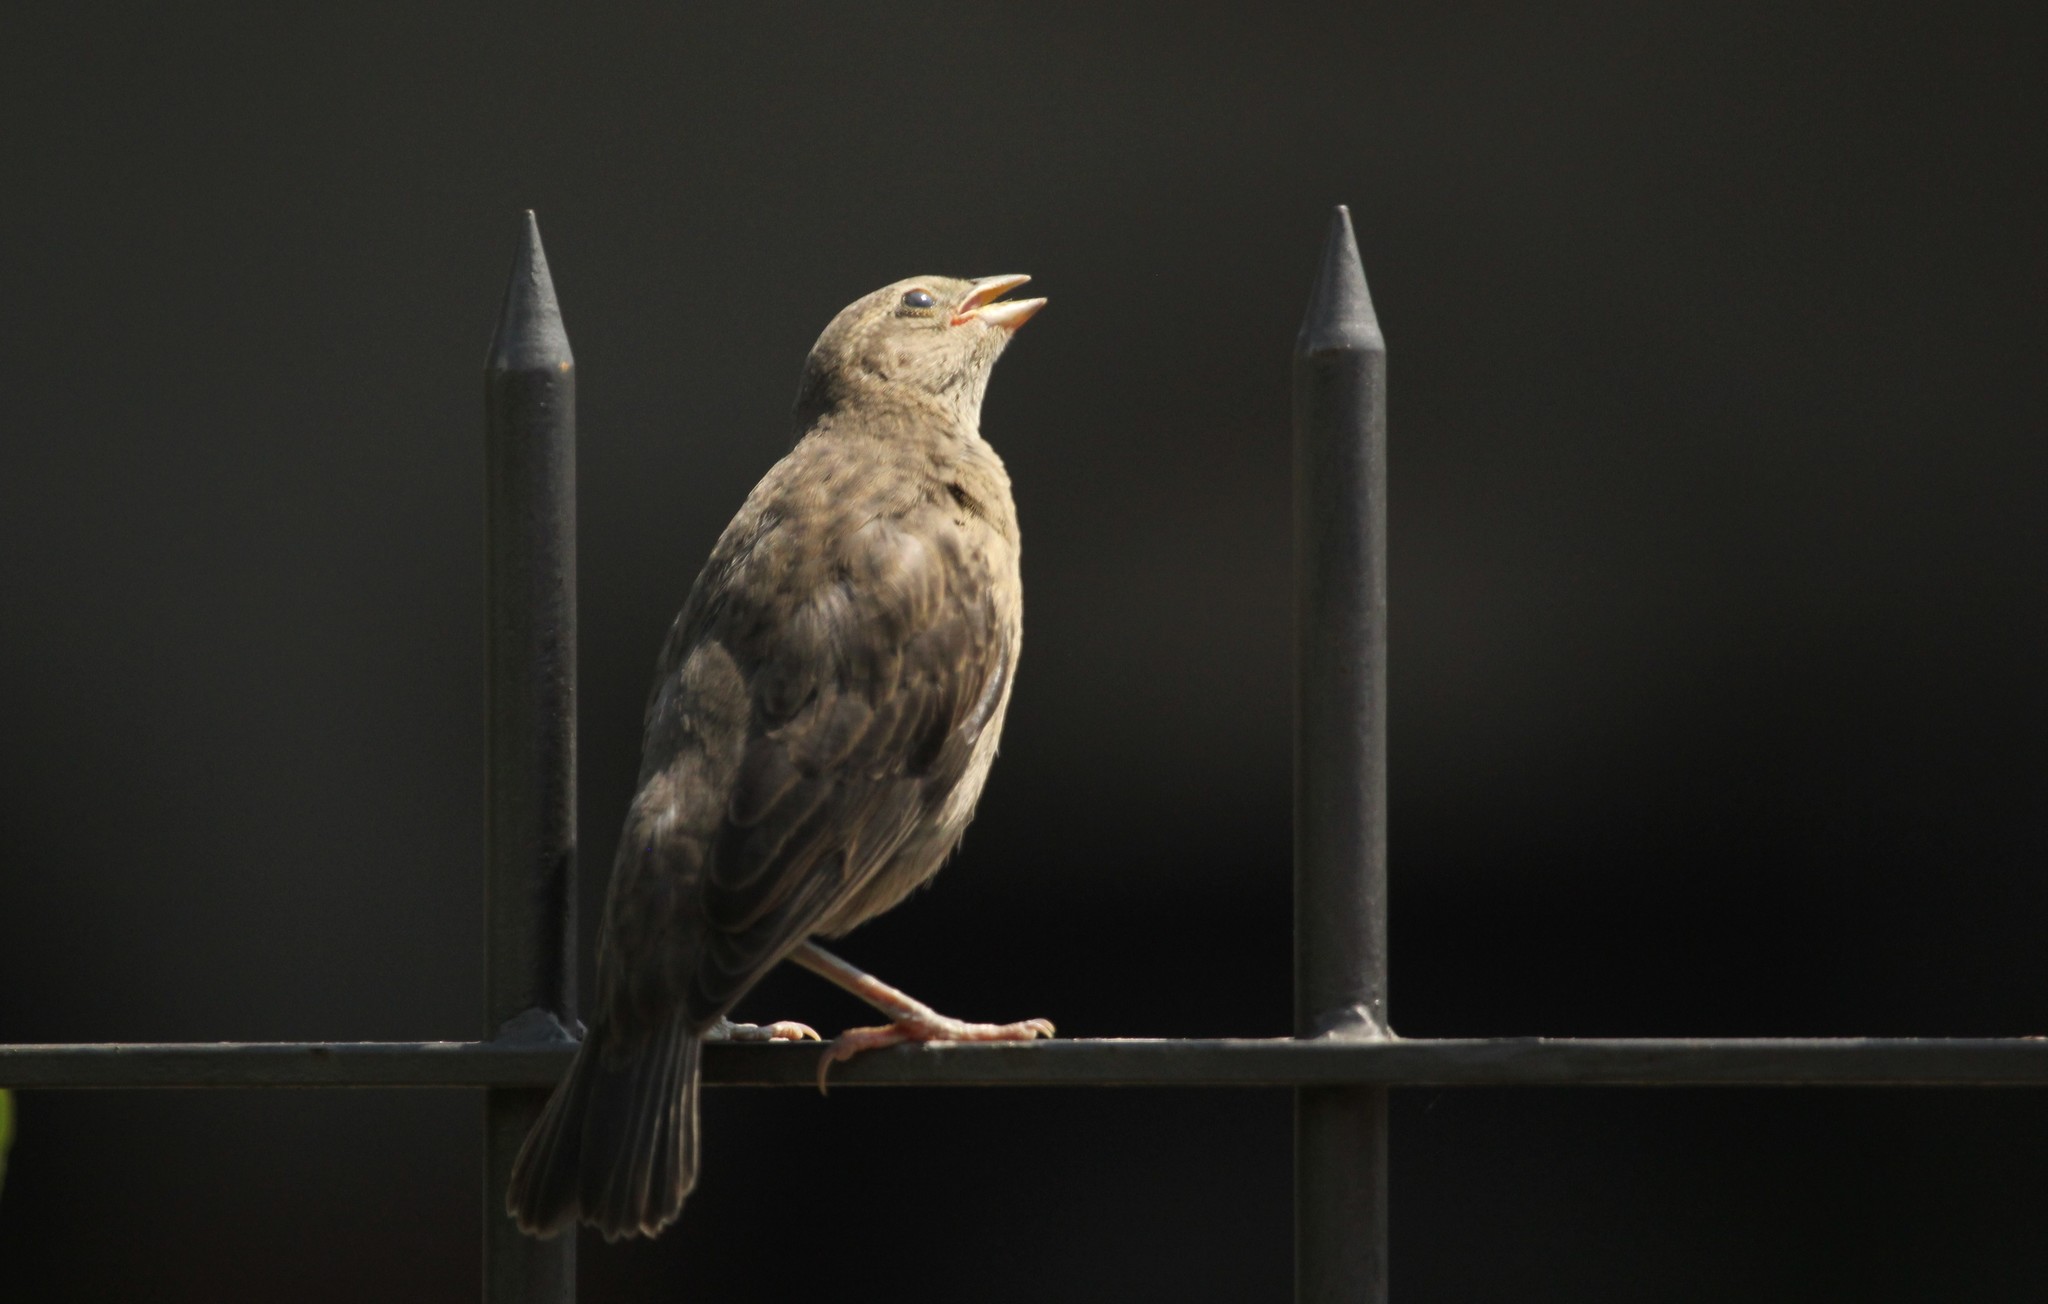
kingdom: Animalia
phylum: Chordata
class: Aves
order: Passeriformes
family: Icteridae
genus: Molothrus
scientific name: Molothrus bonariensis
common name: Shiny cowbird
